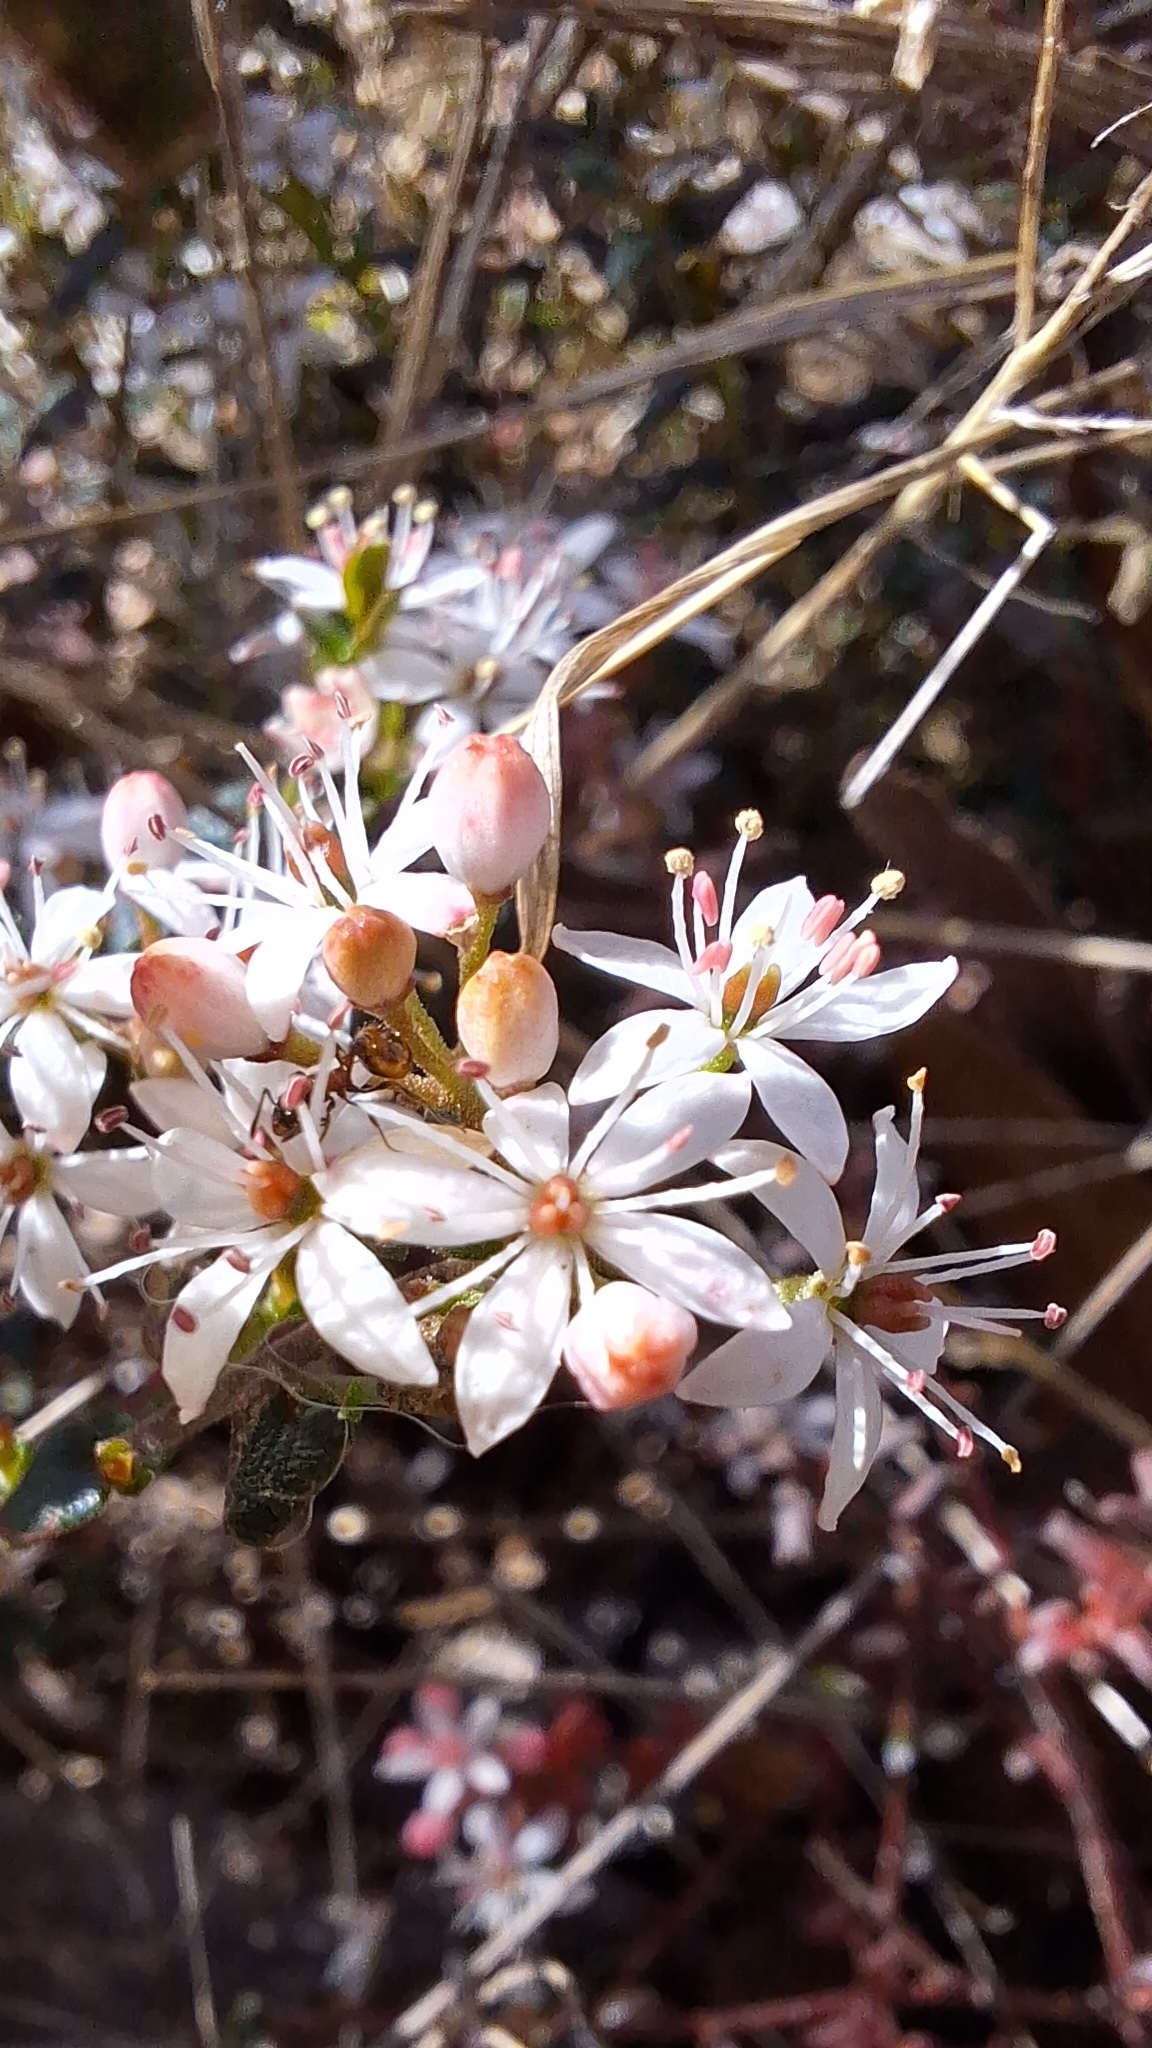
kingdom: Plantae
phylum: Tracheophyta
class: Magnoliopsida
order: Sapindales
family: Rutaceae
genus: Leionema
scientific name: Leionema hillebrandii
